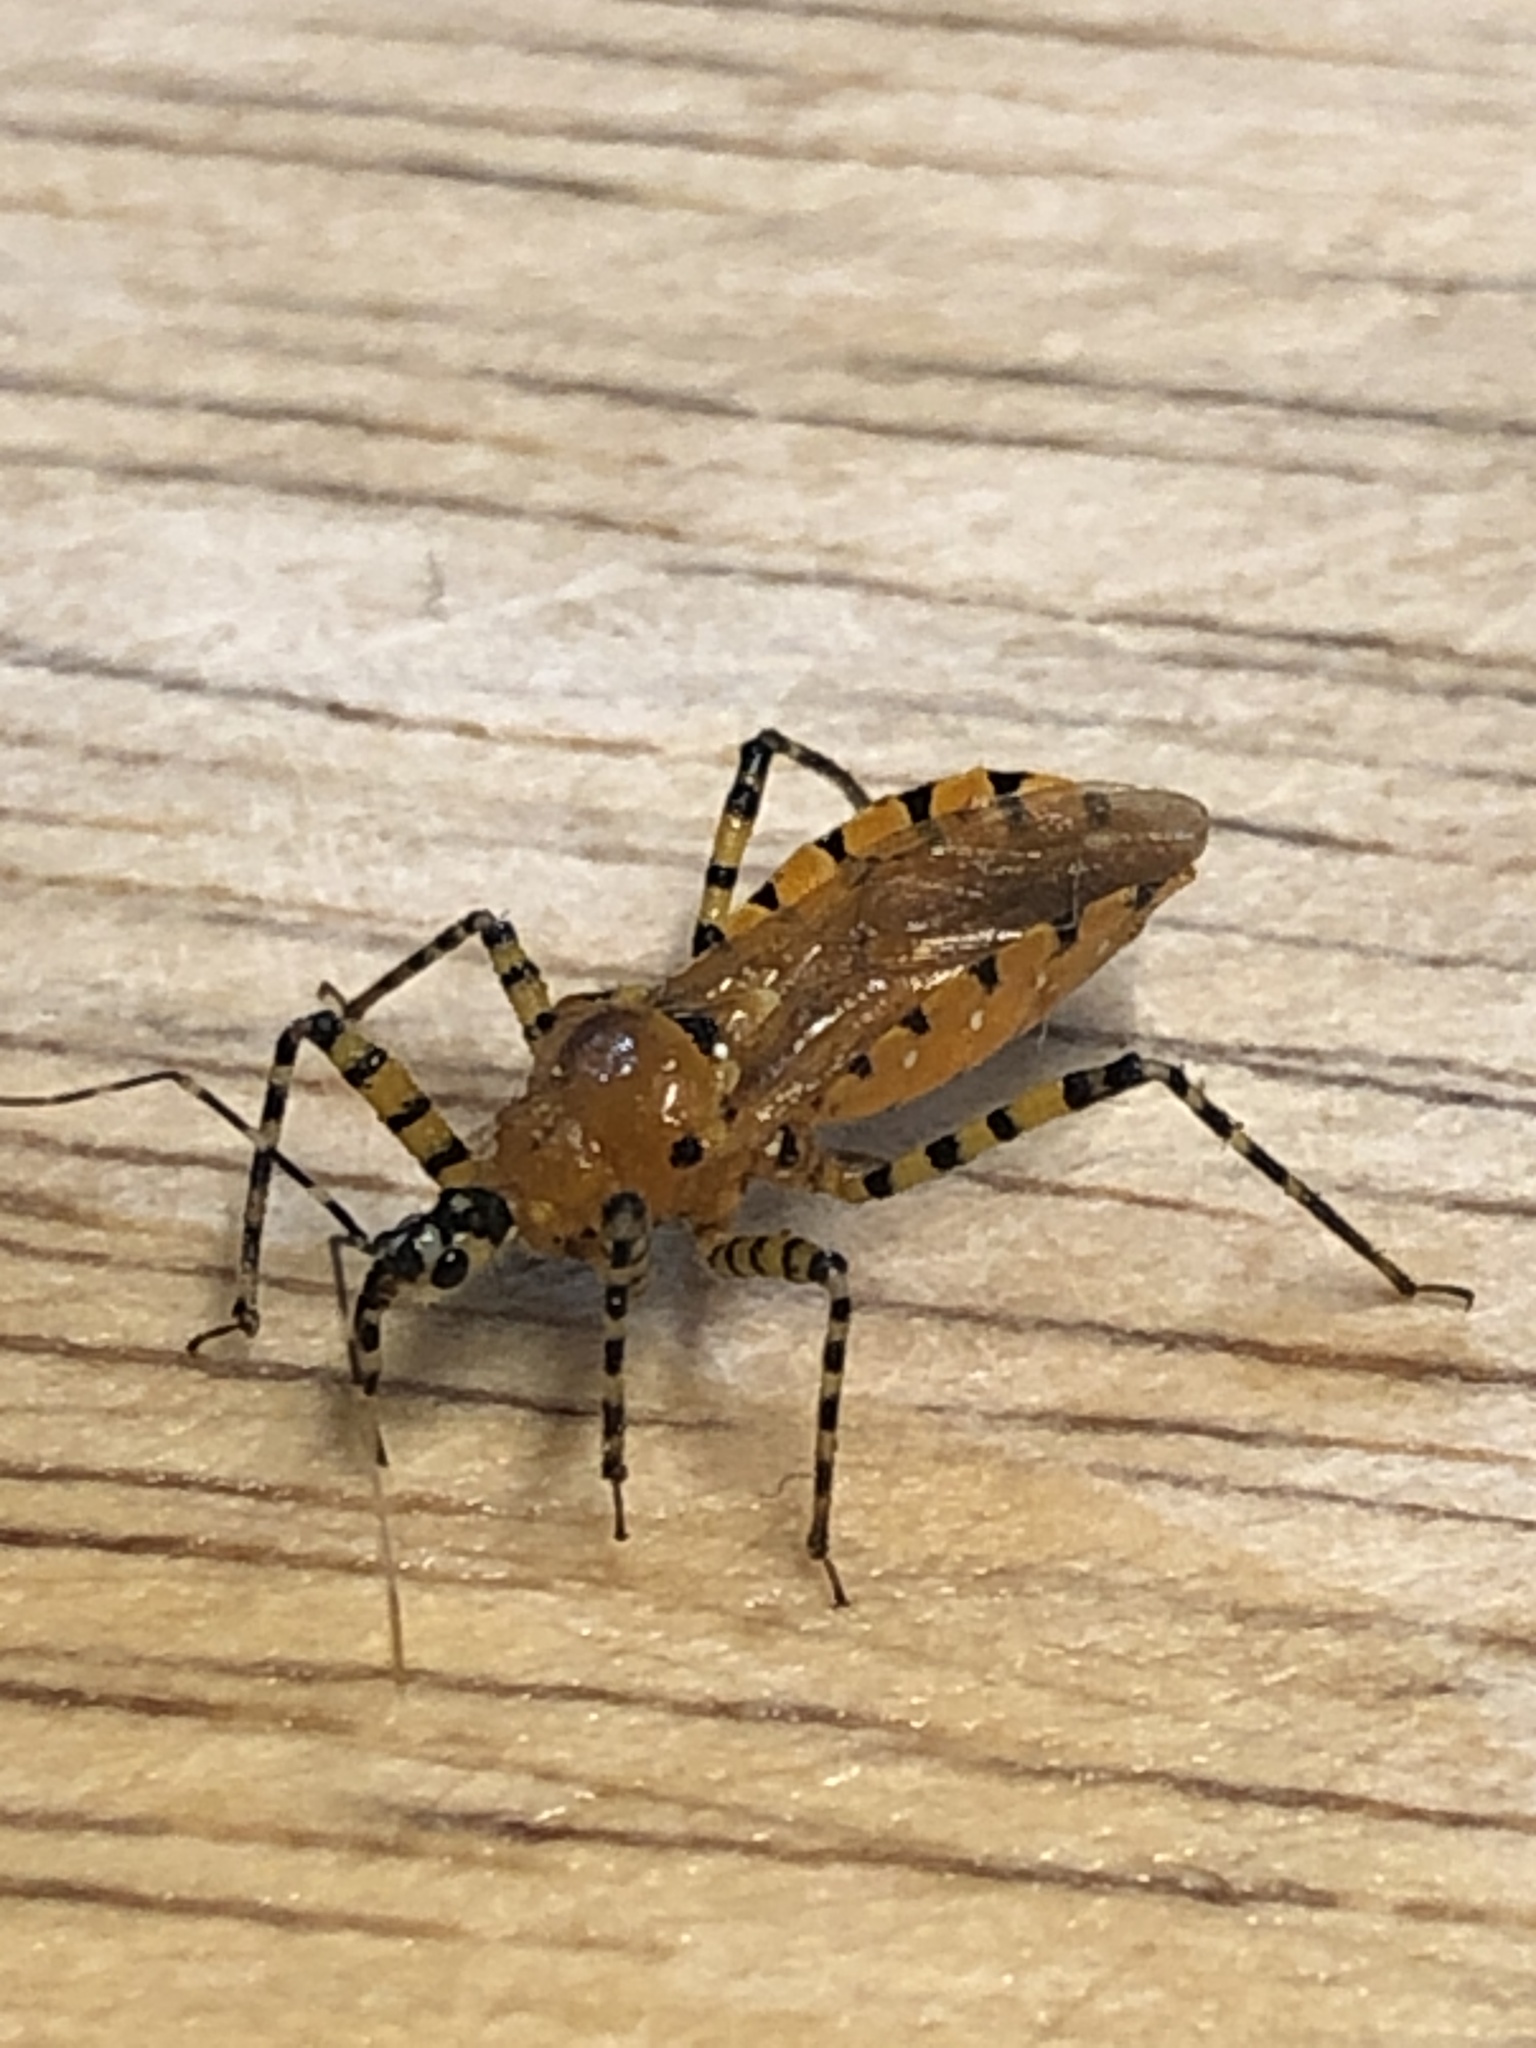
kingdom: Animalia
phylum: Arthropoda
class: Insecta
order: Hemiptera
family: Reduviidae
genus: Pselliopus
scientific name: Pselliopus barberi
